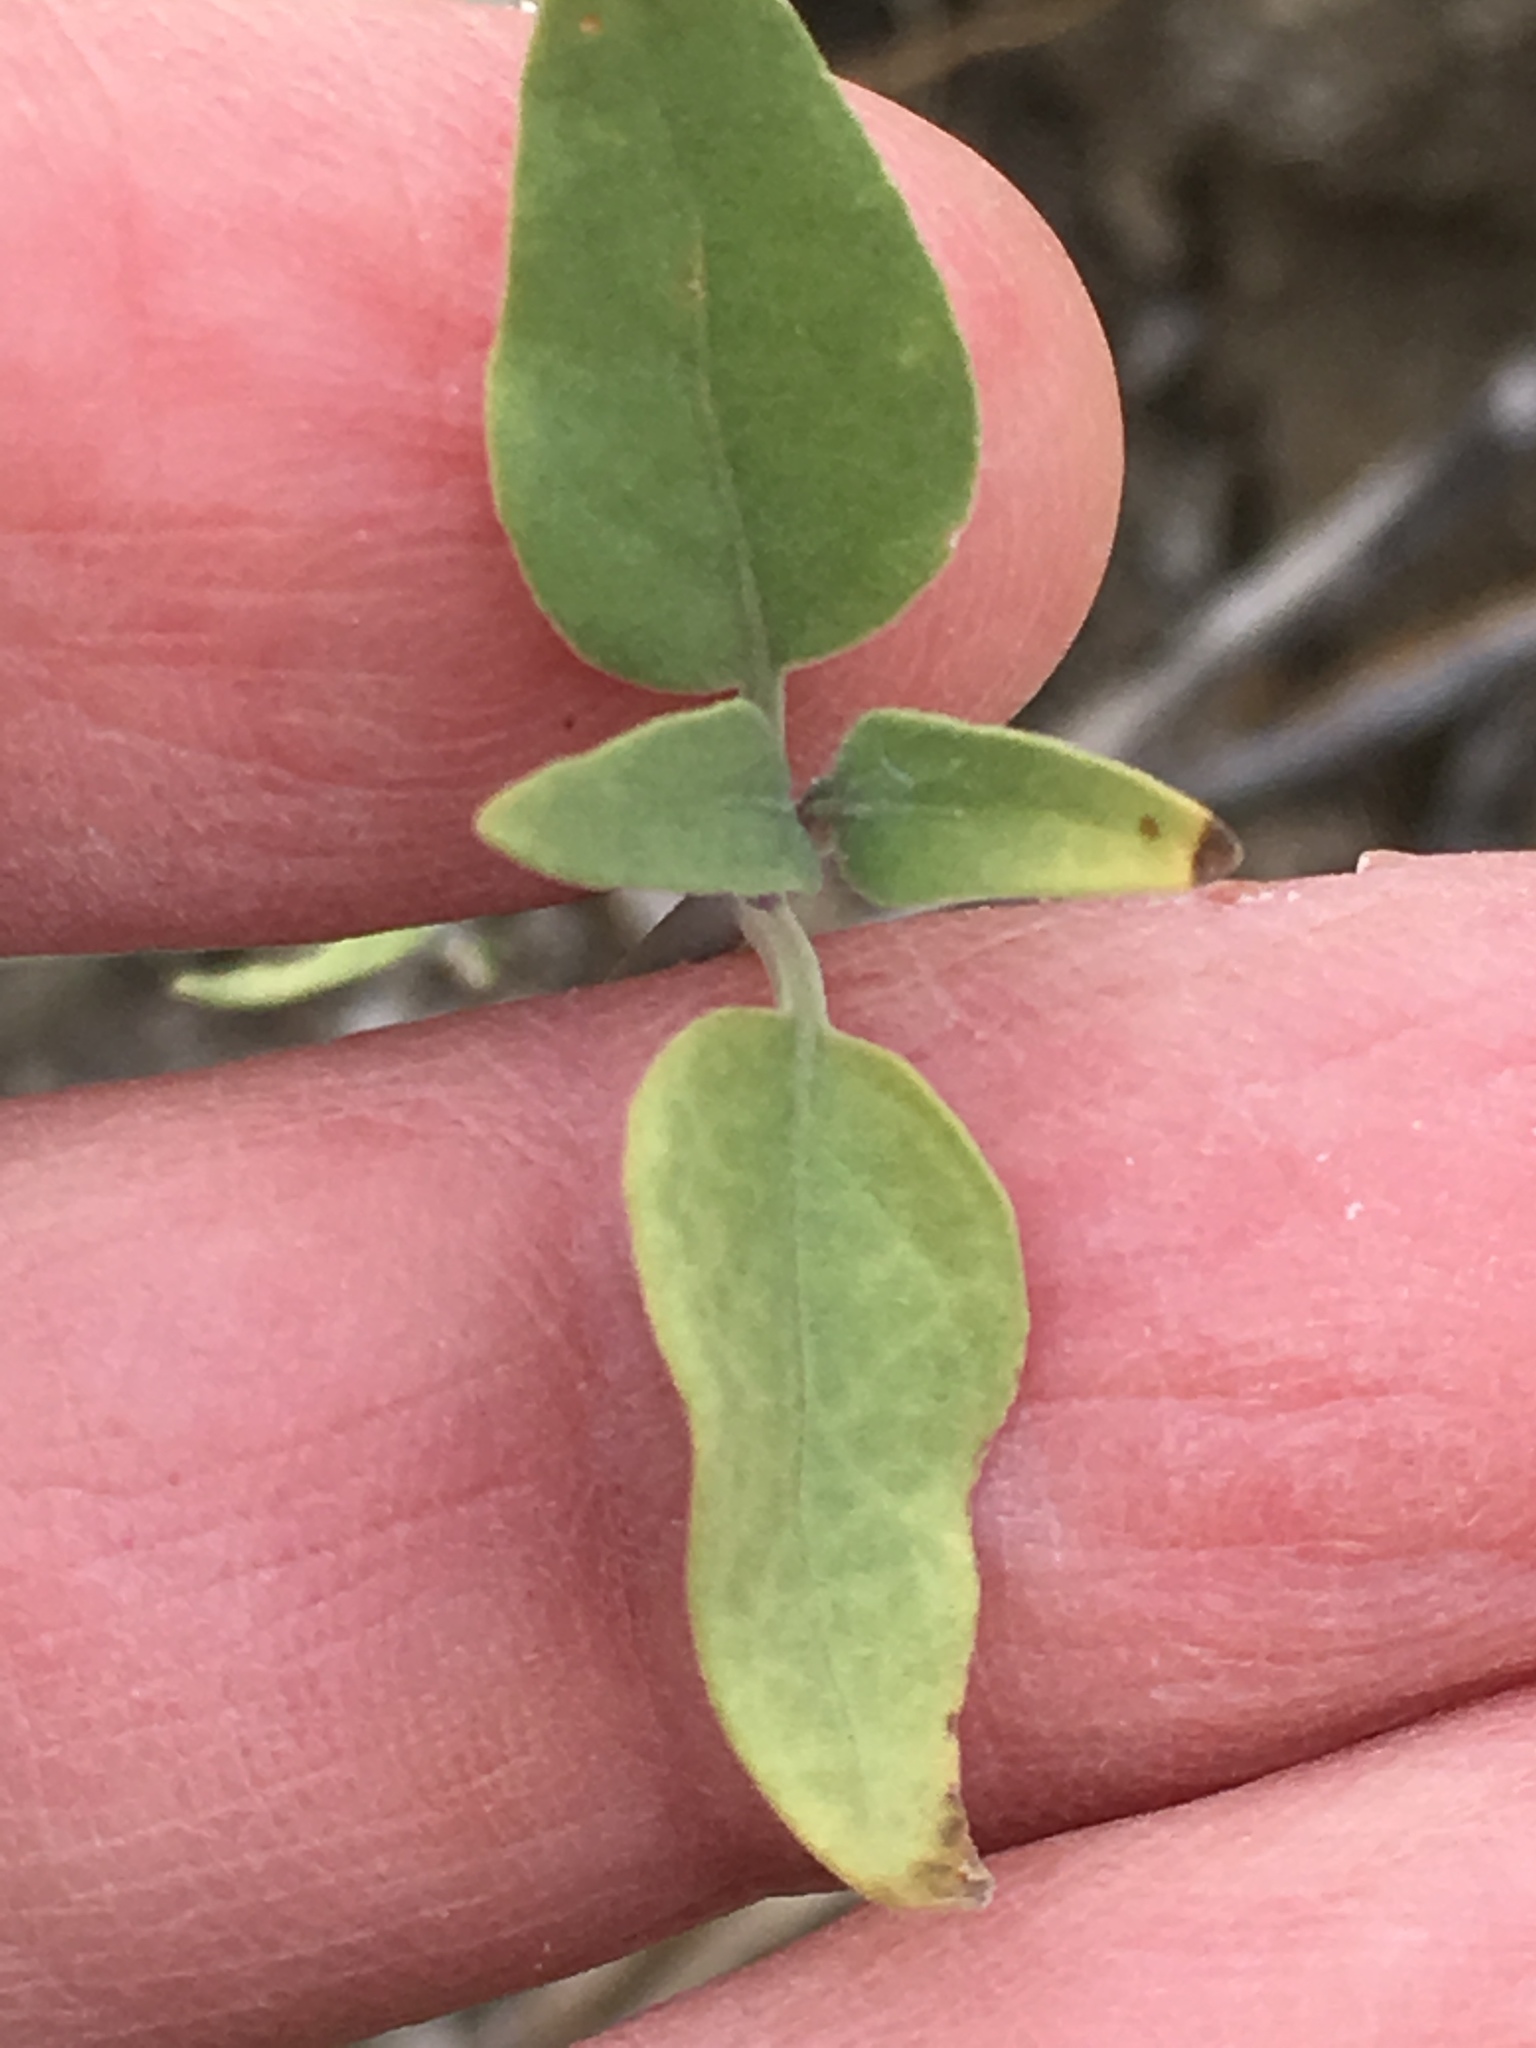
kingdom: Plantae
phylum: Tracheophyta
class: Magnoliopsida
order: Lamiales
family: Acanthaceae
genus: Justicia
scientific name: Justicia californica
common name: Chuparosa-honeysuckle
